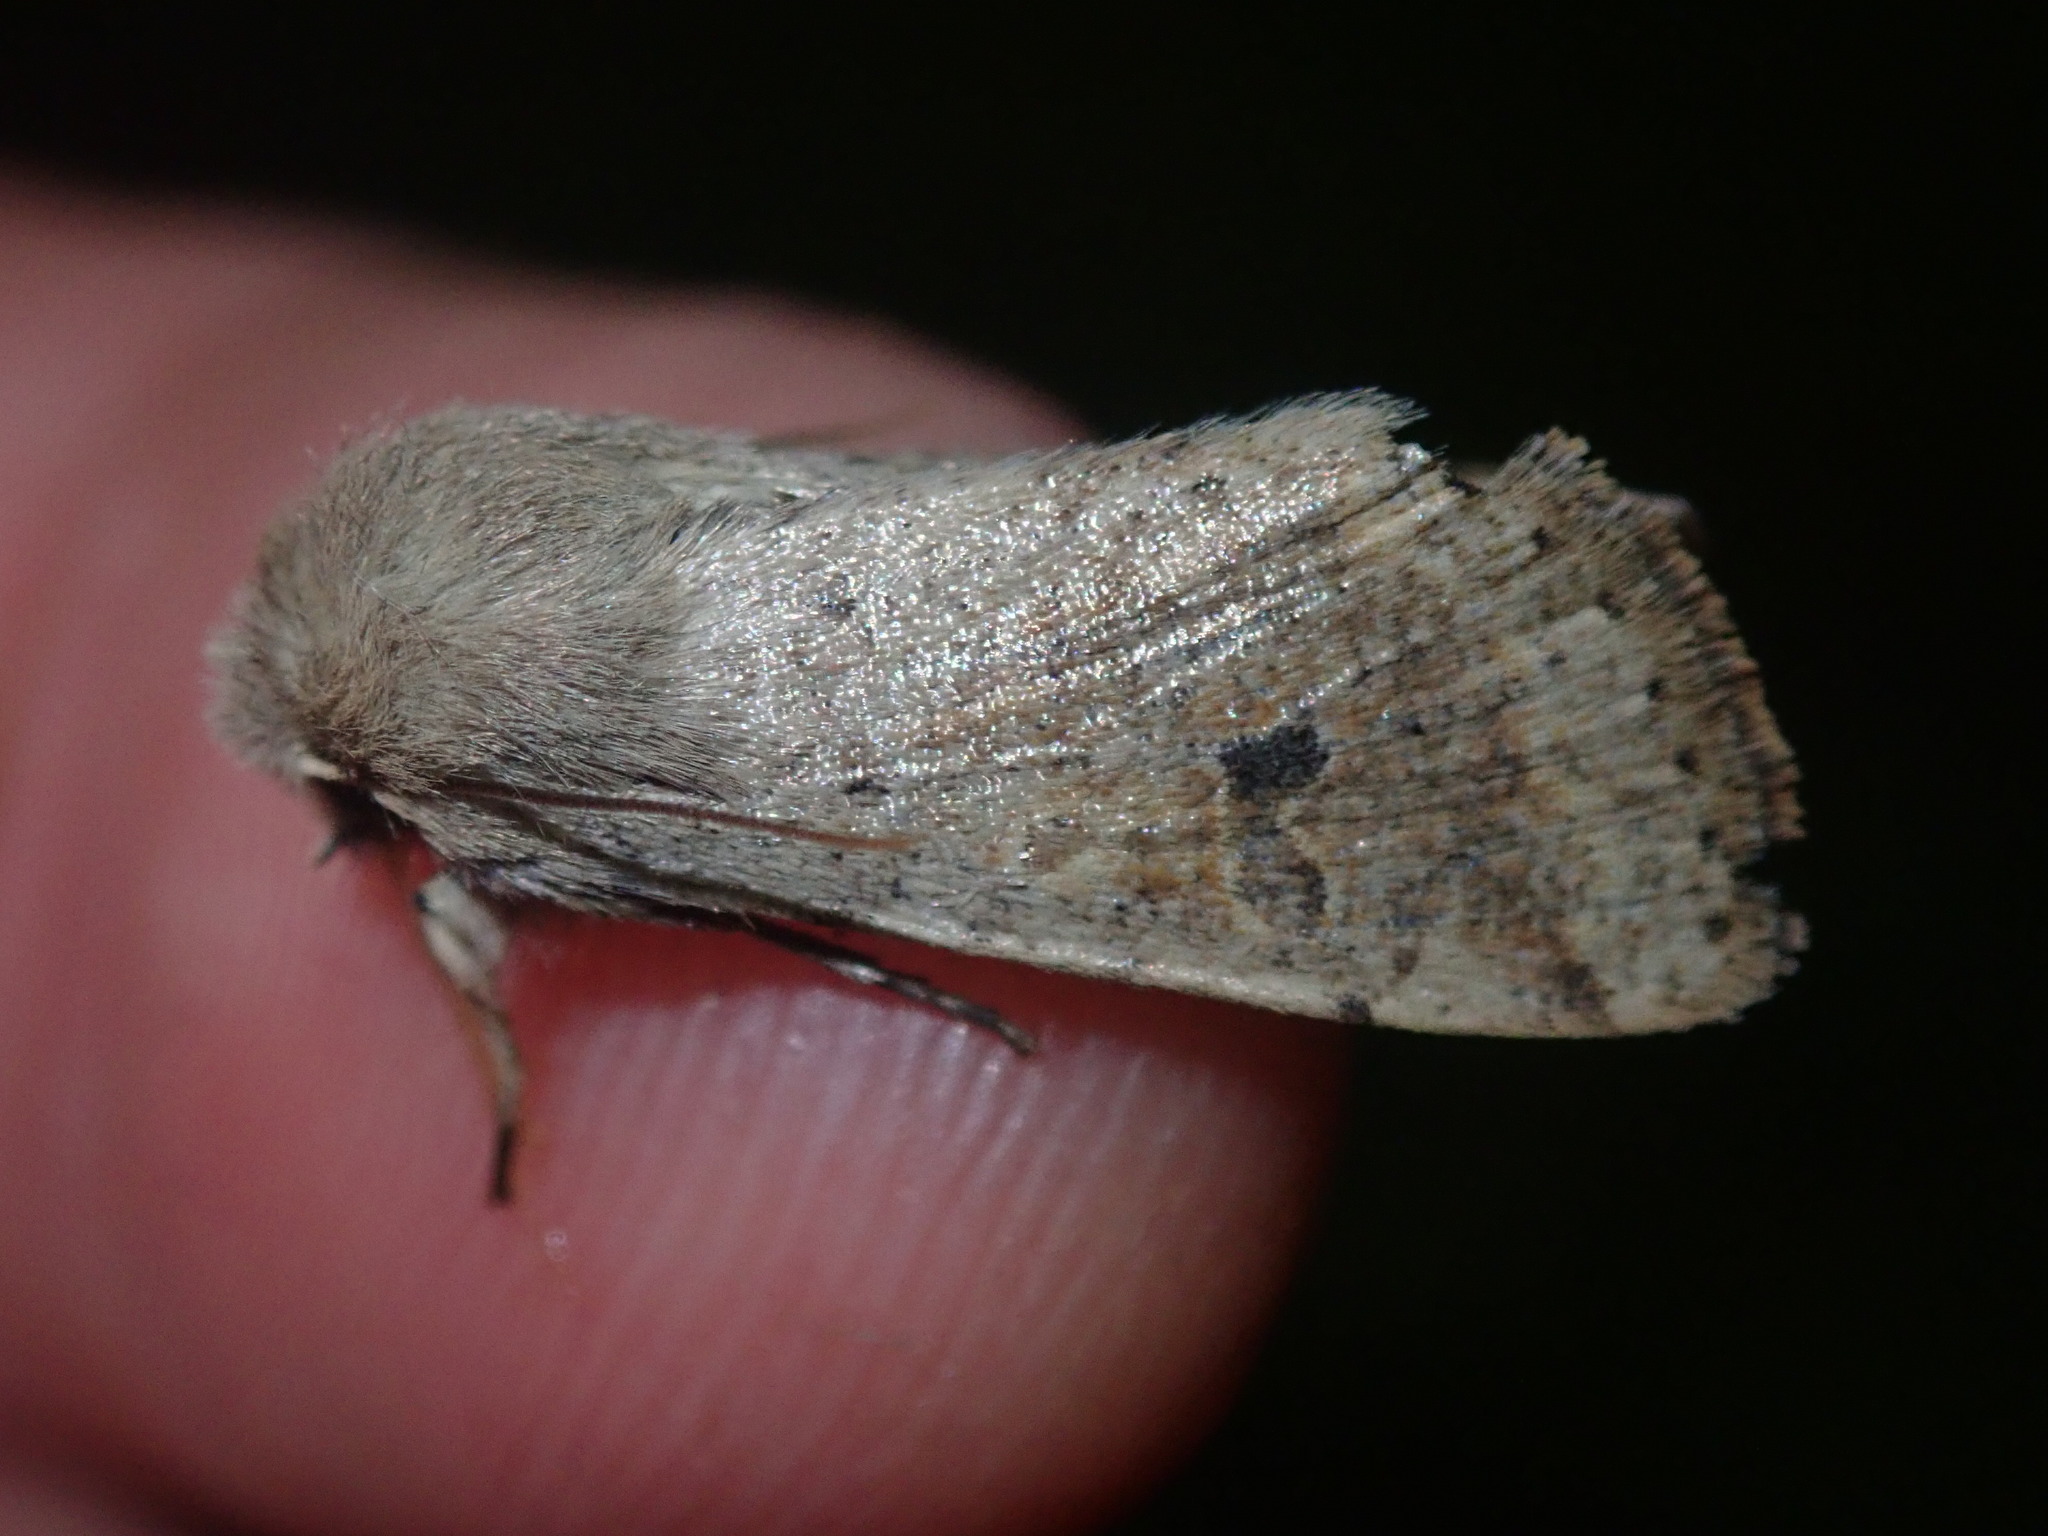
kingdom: Animalia
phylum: Arthropoda
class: Insecta
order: Lepidoptera
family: Noctuidae
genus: Orthosia
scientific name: Orthosia cruda
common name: Small quaker
